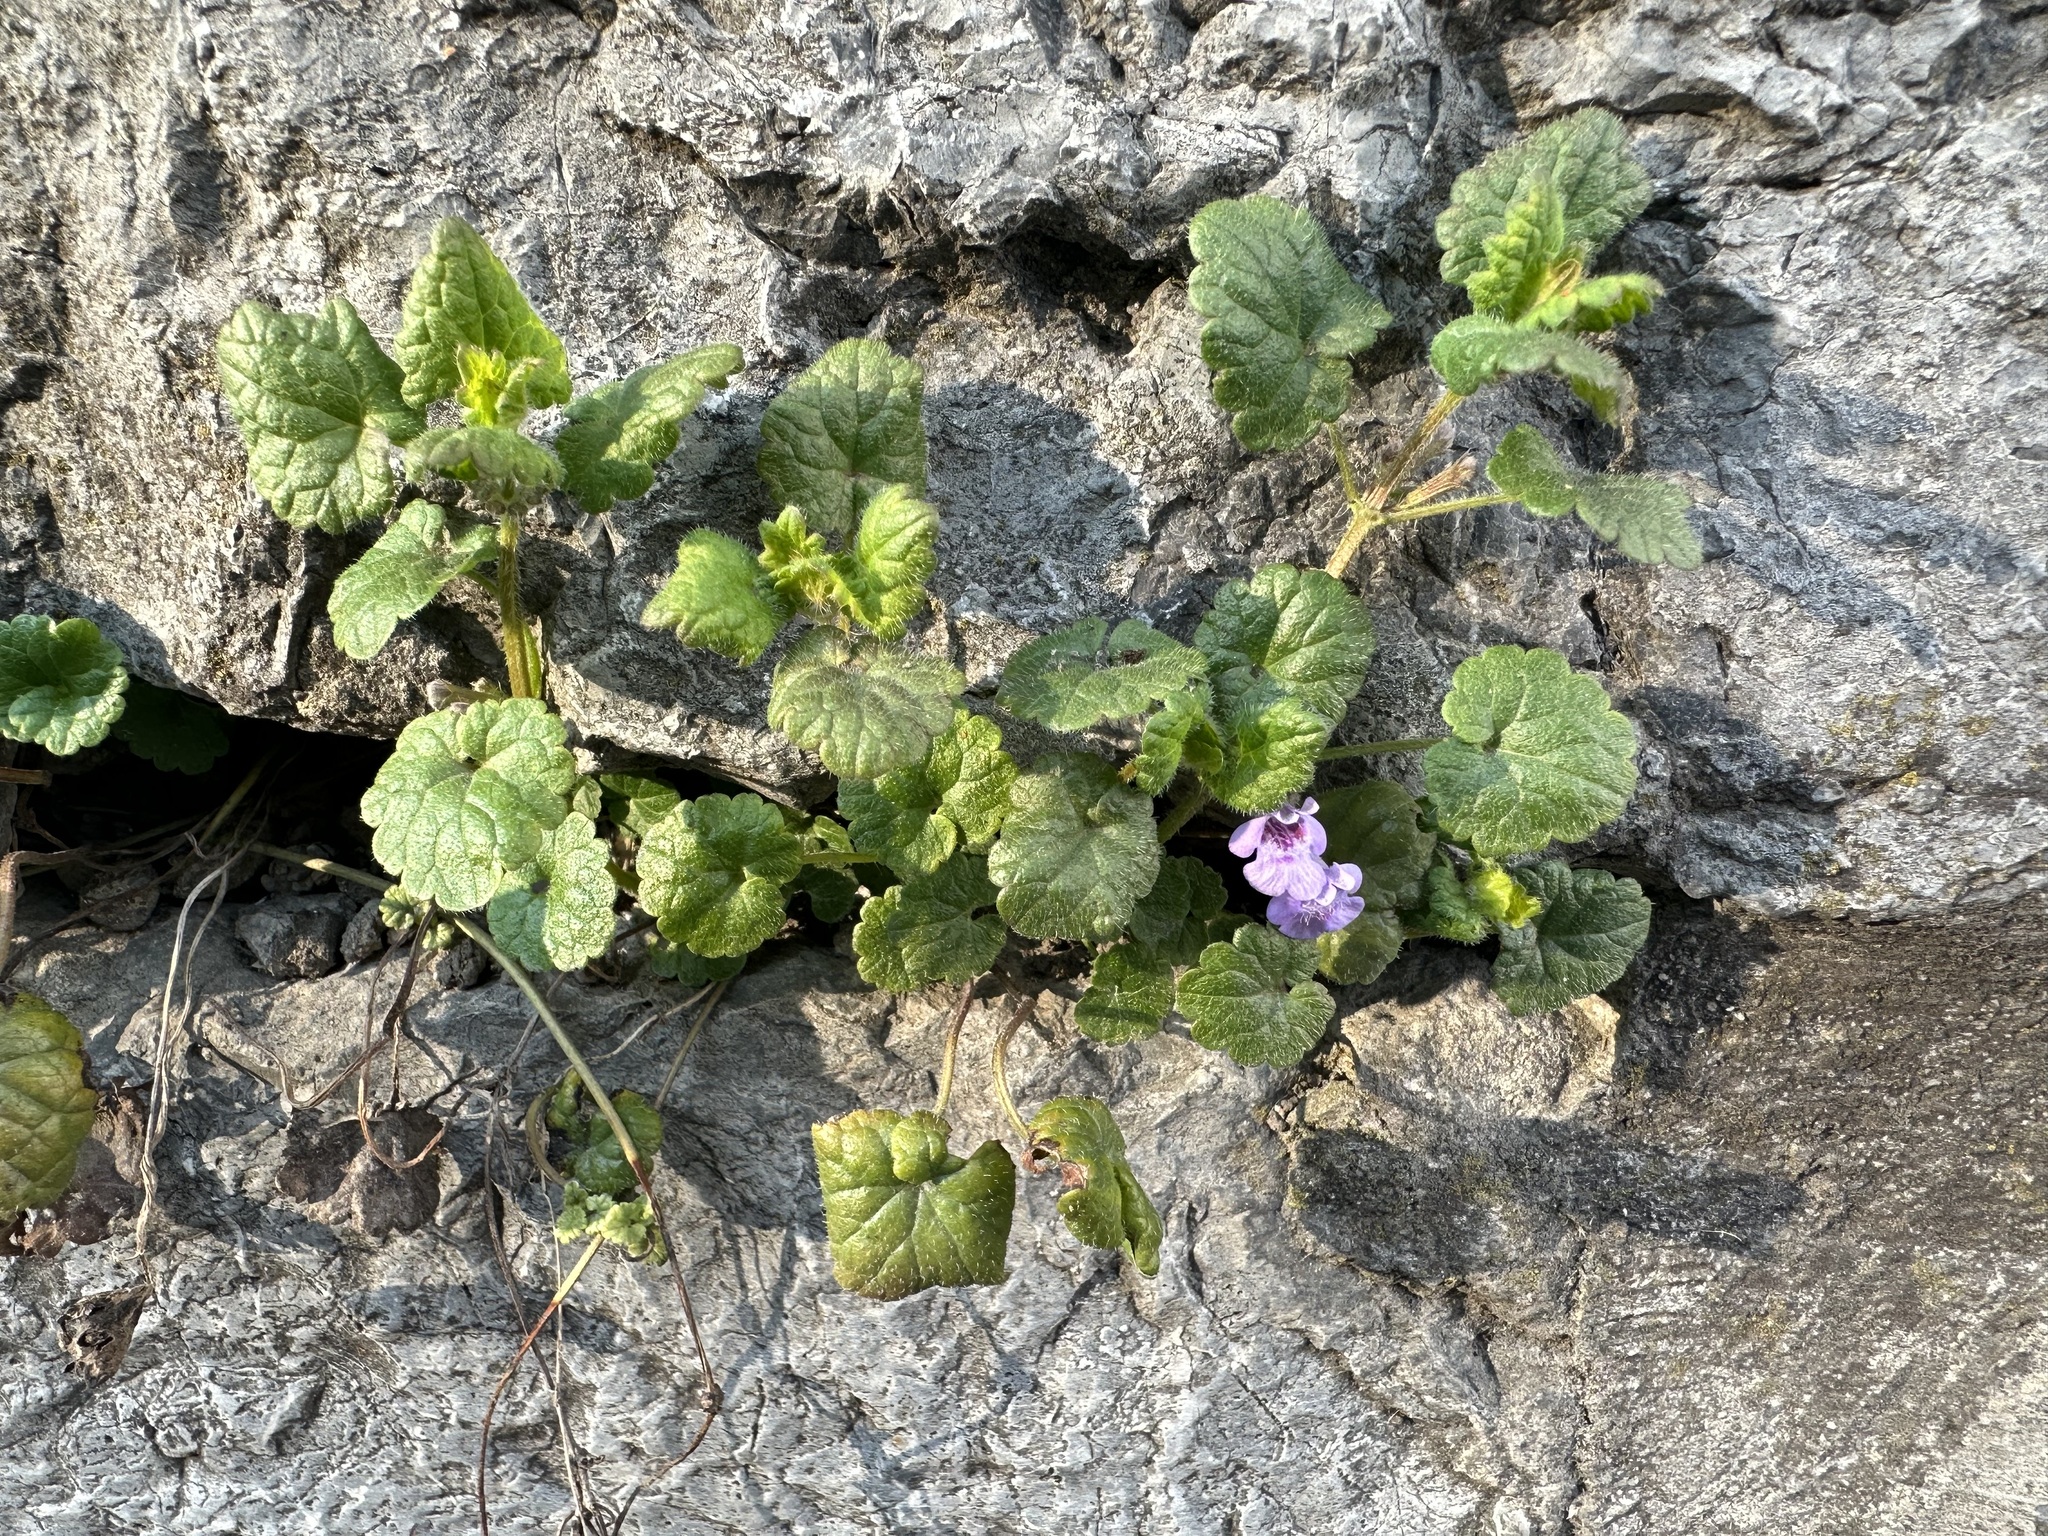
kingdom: Plantae
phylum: Tracheophyta
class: Magnoliopsida
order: Lamiales
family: Lamiaceae
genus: Glechoma
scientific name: Glechoma hederacea
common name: Ground ivy
